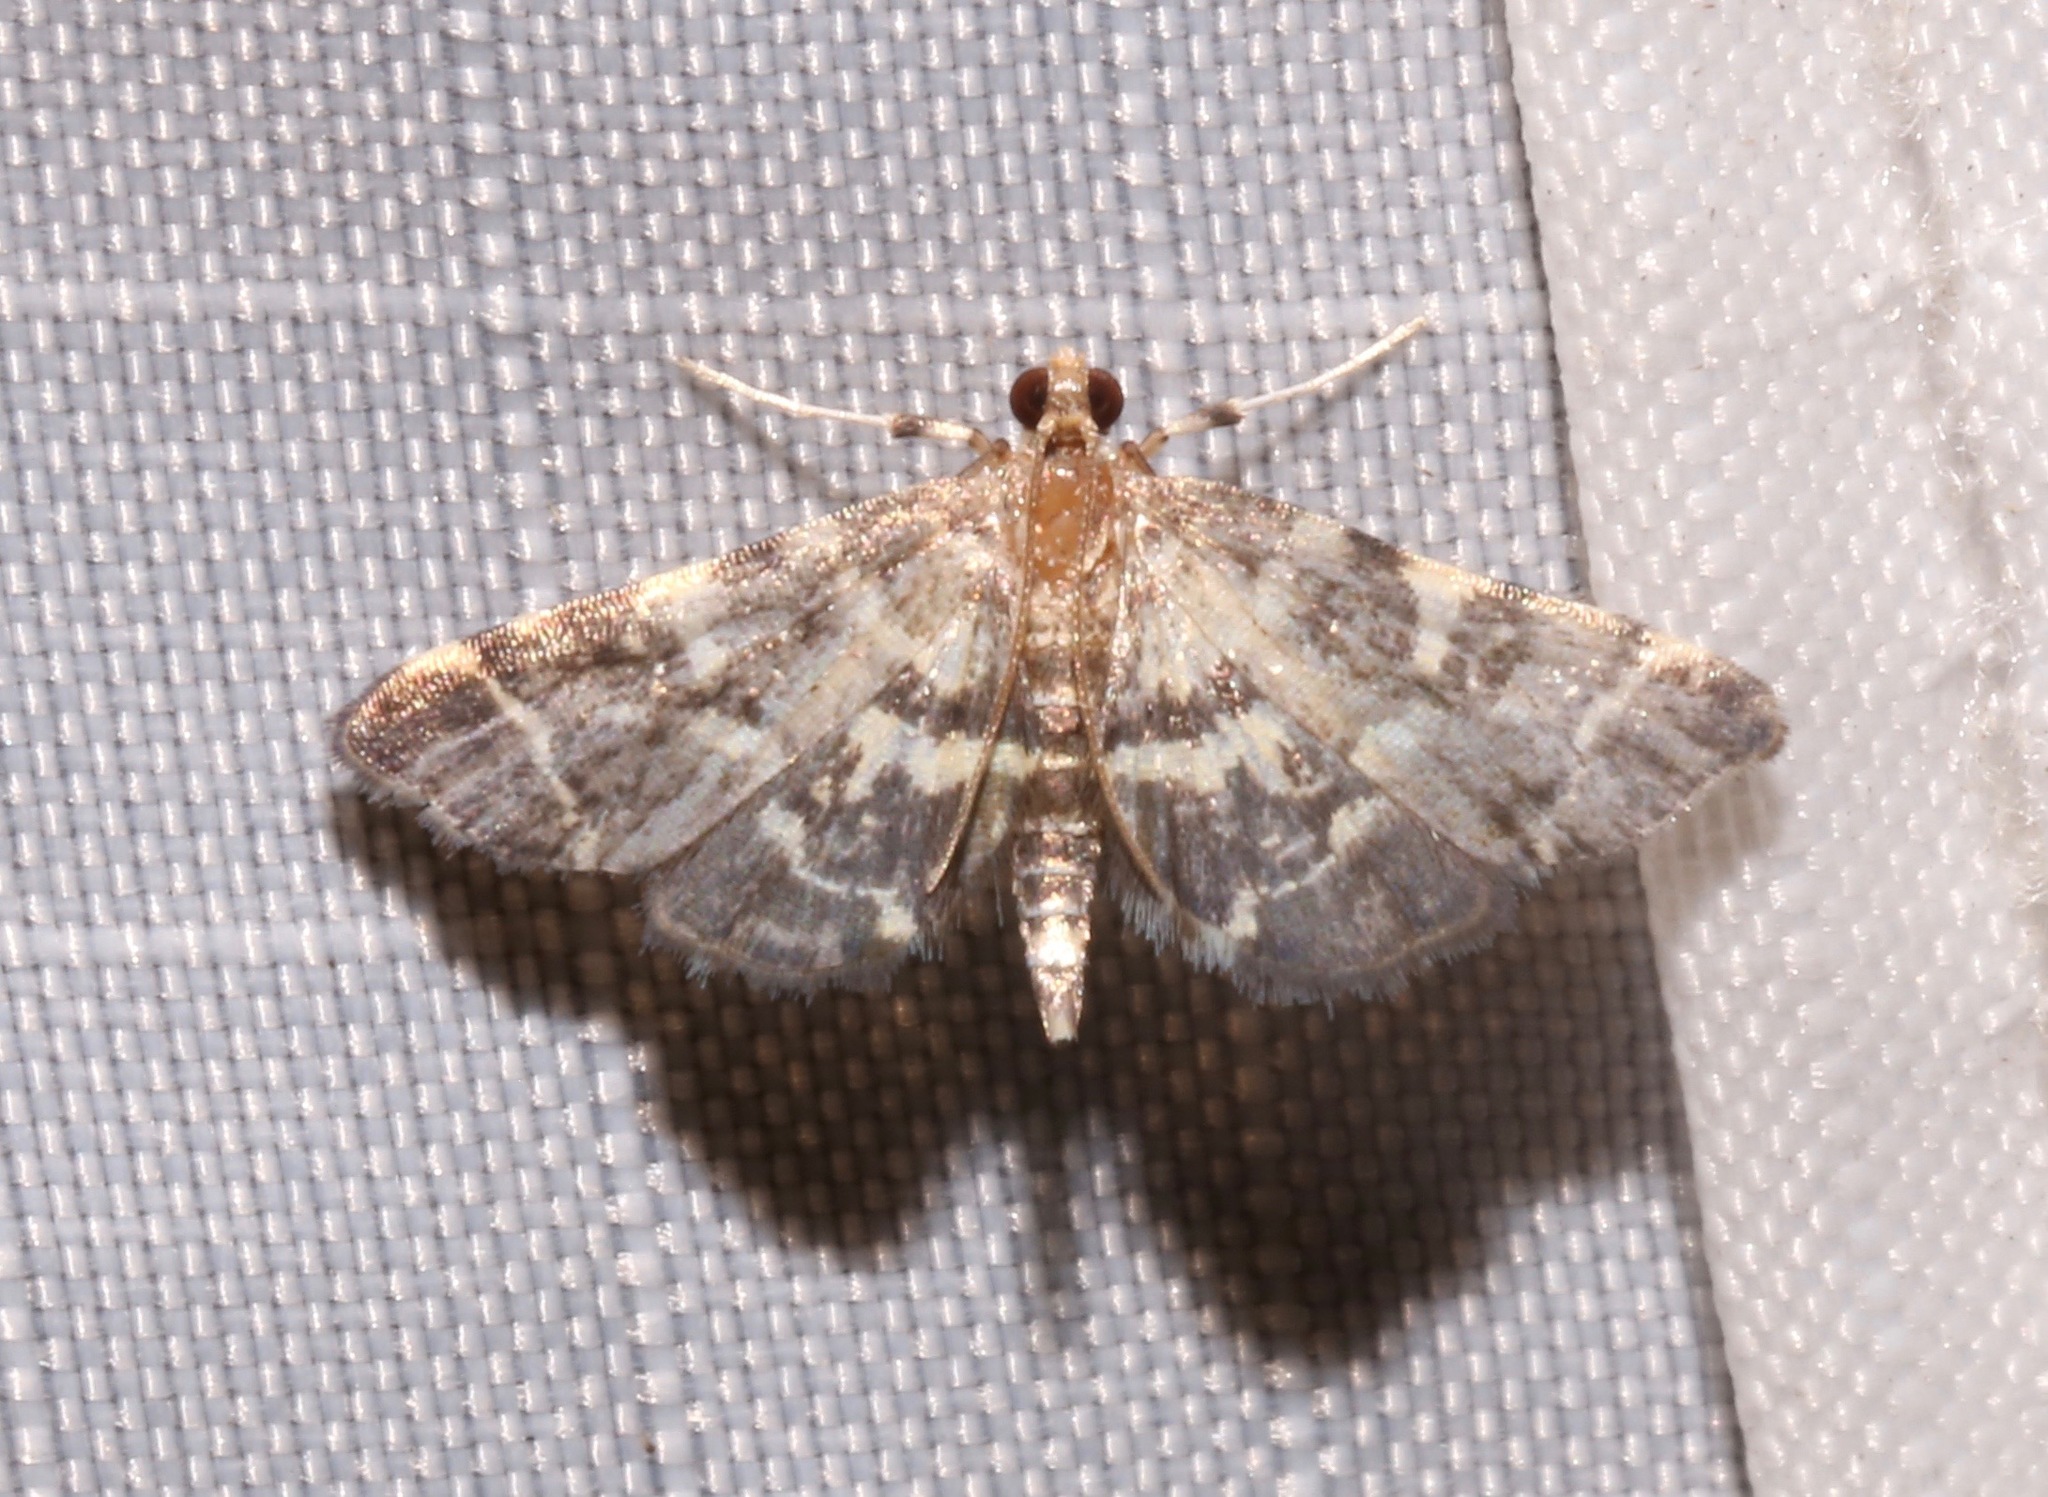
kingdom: Animalia
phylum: Arthropoda
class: Insecta
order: Lepidoptera
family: Crambidae
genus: Anageshna
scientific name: Anageshna primordialis
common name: Yellow-spotted webworm moth
